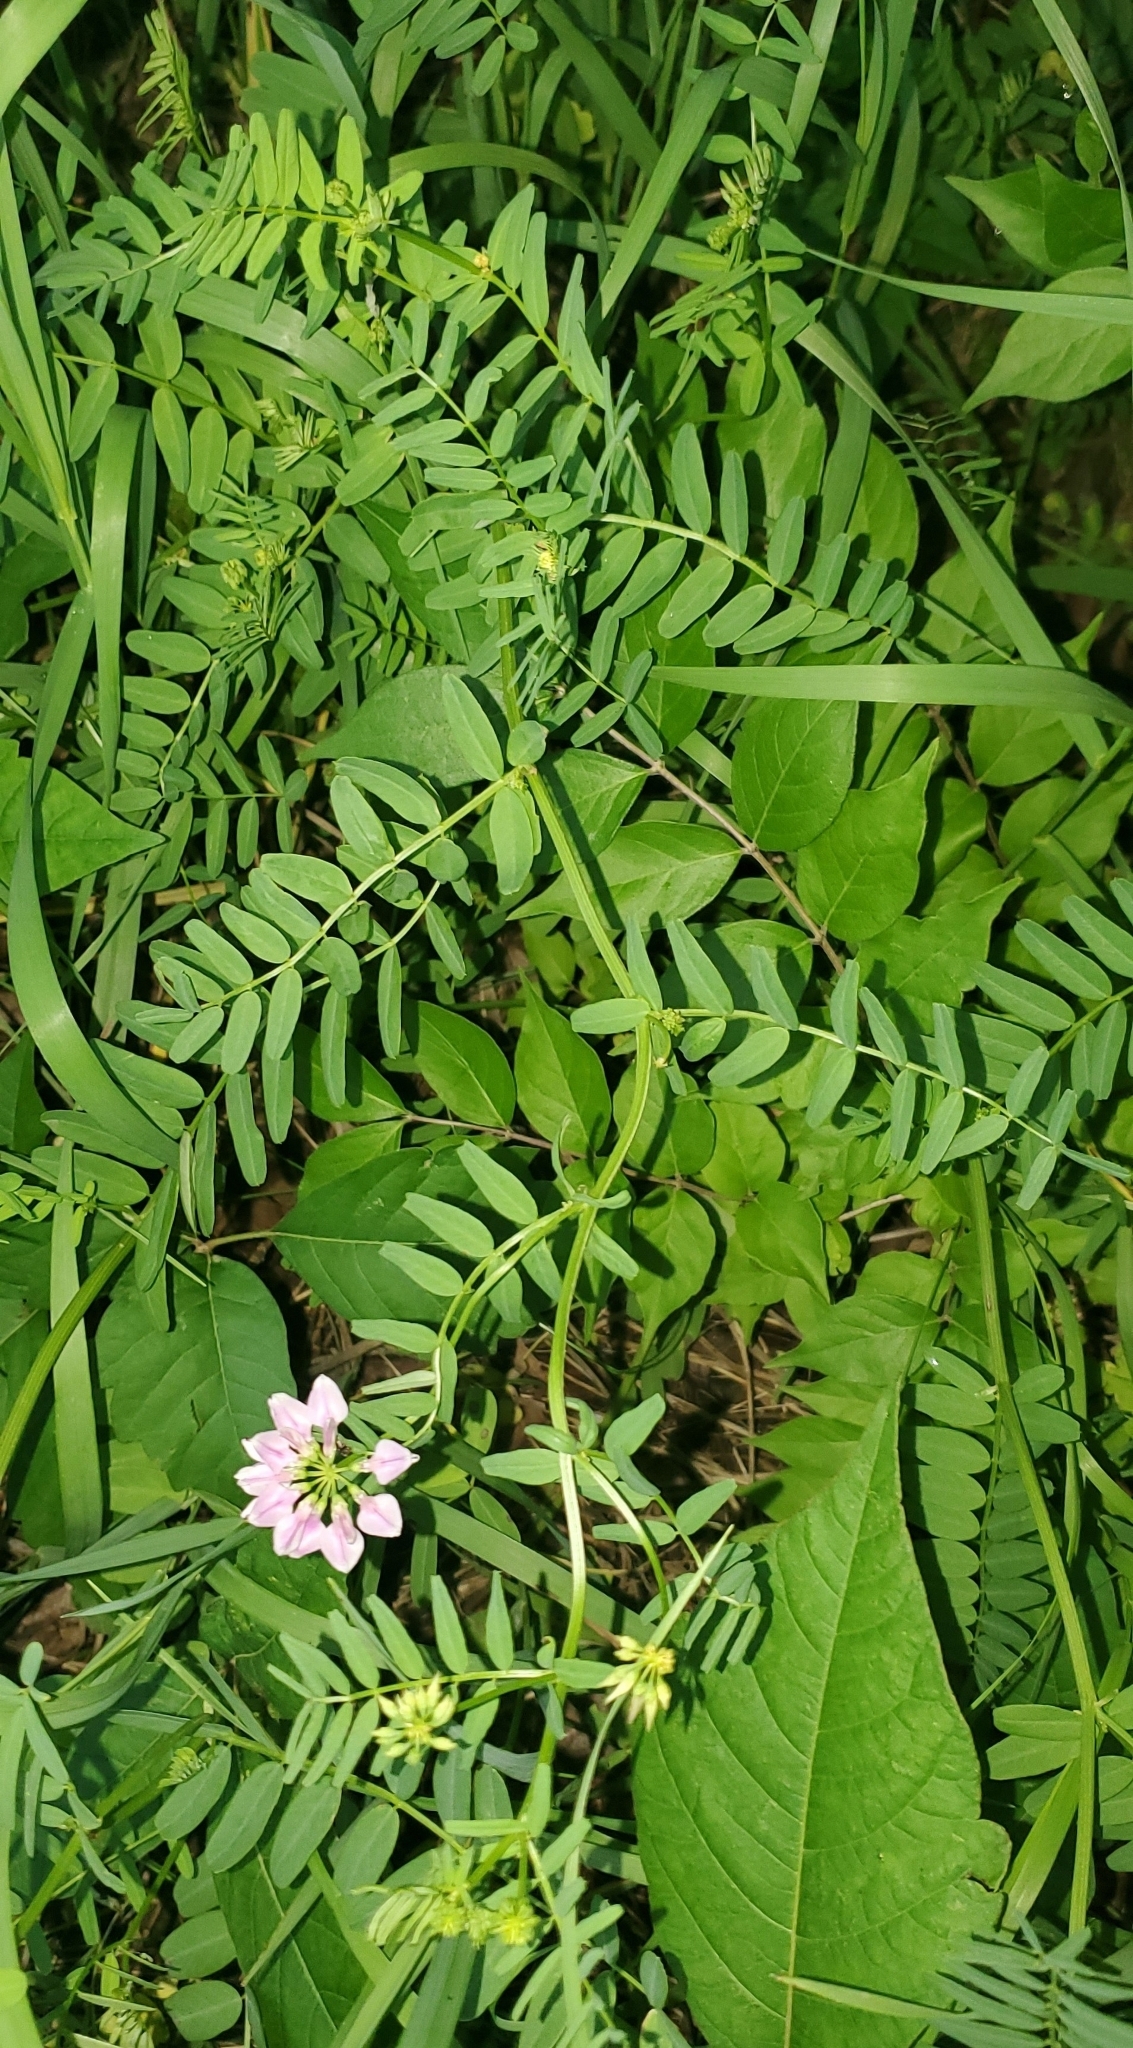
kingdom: Plantae
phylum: Tracheophyta
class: Magnoliopsida
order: Fabales
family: Fabaceae
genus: Coronilla
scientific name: Coronilla varia
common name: Crownvetch
